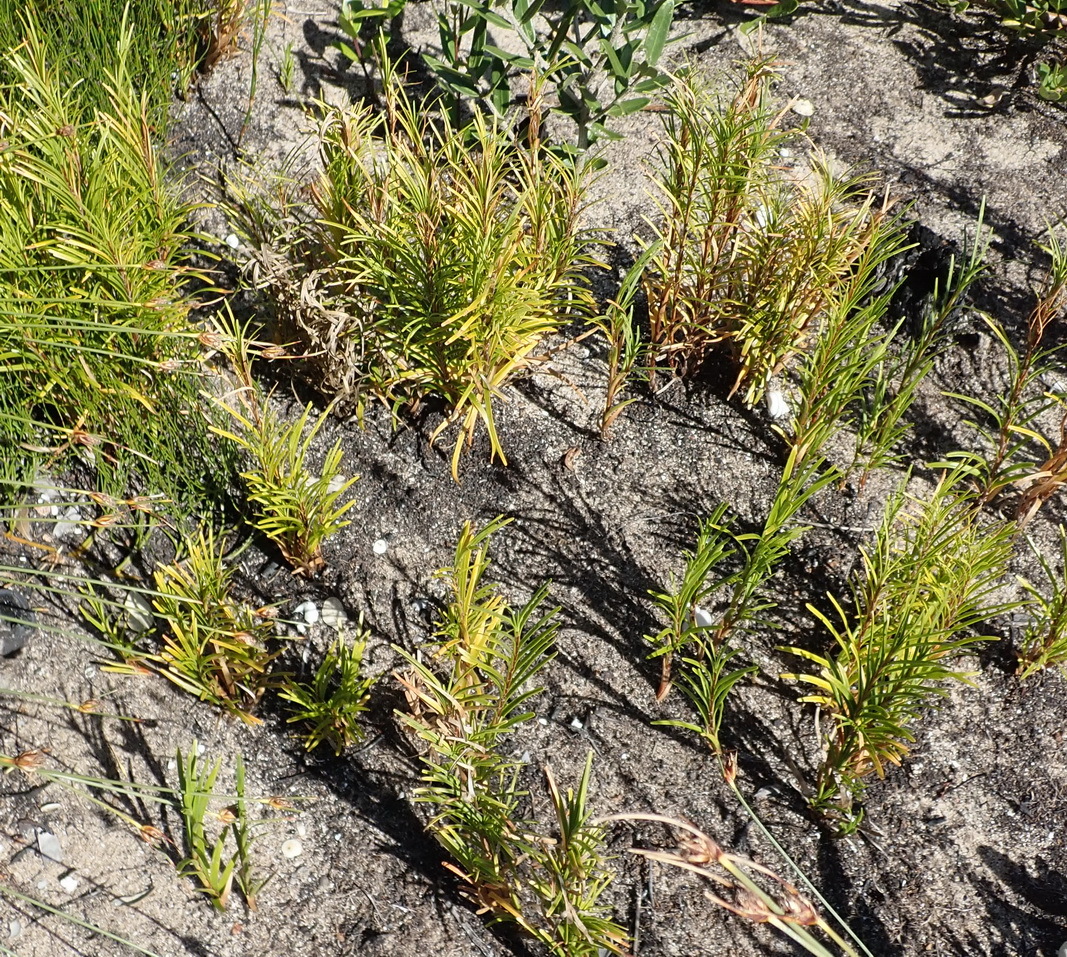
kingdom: Plantae
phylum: Tracheophyta
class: Liliopsida
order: Poales
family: Cyperaceae
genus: Ficinia
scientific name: Ficinia ramosissima
